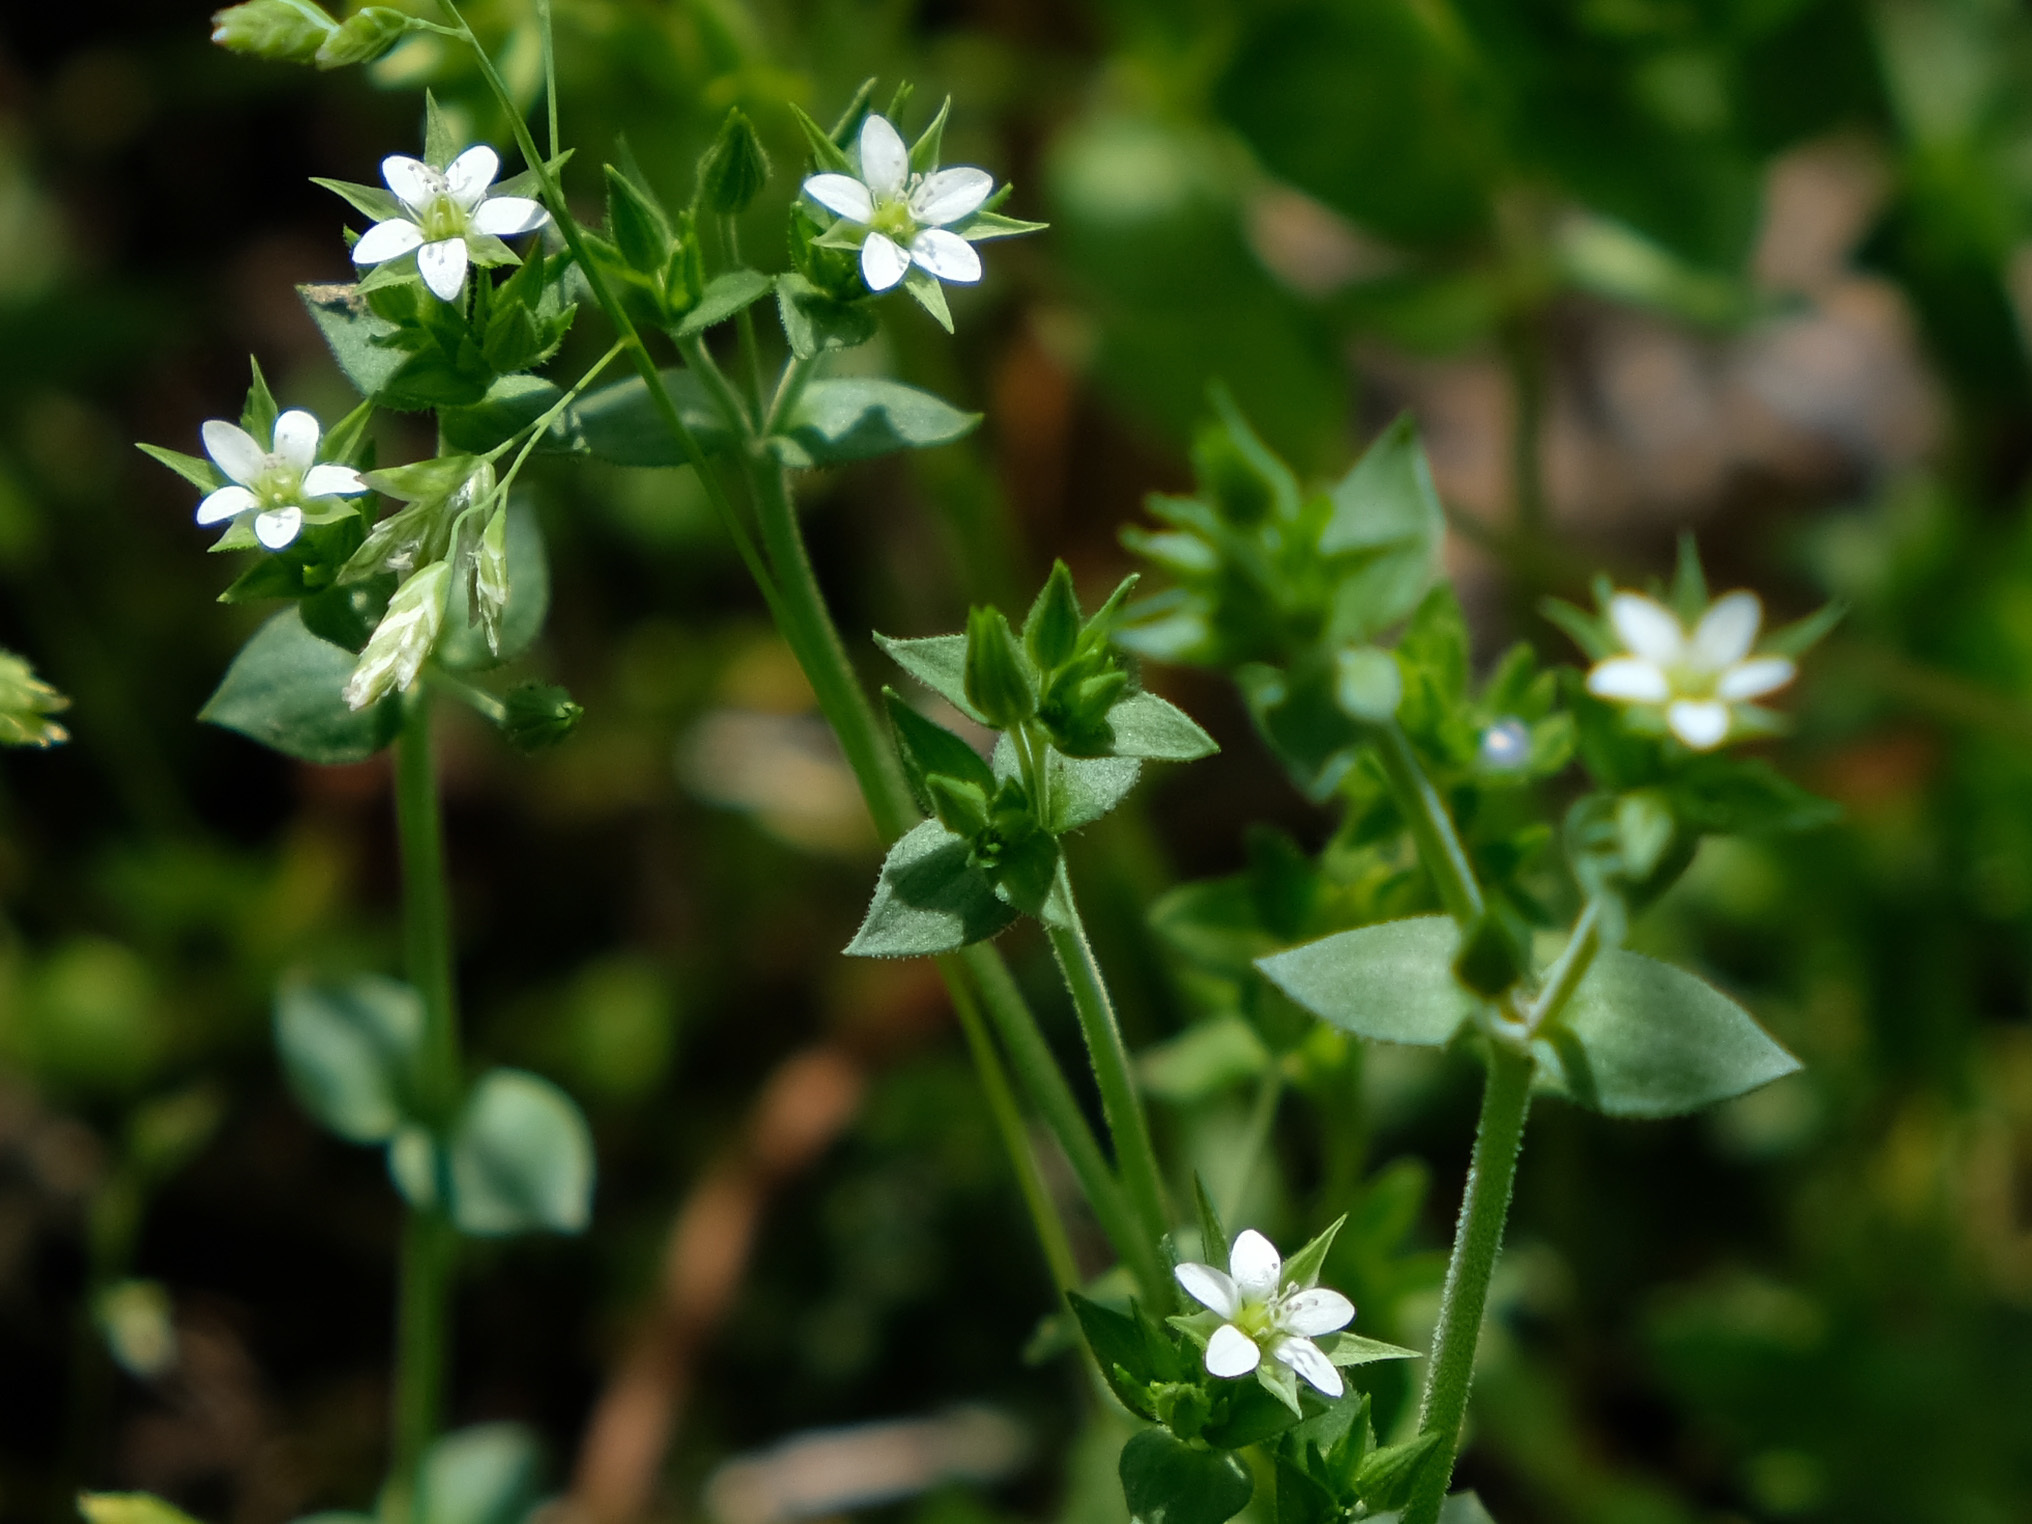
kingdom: Plantae
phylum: Tracheophyta
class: Magnoliopsida
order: Caryophyllales
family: Caryophyllaceae
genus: Arenaria
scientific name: Arenaria serpyllifolia
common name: Thyme-leaved sandwort
